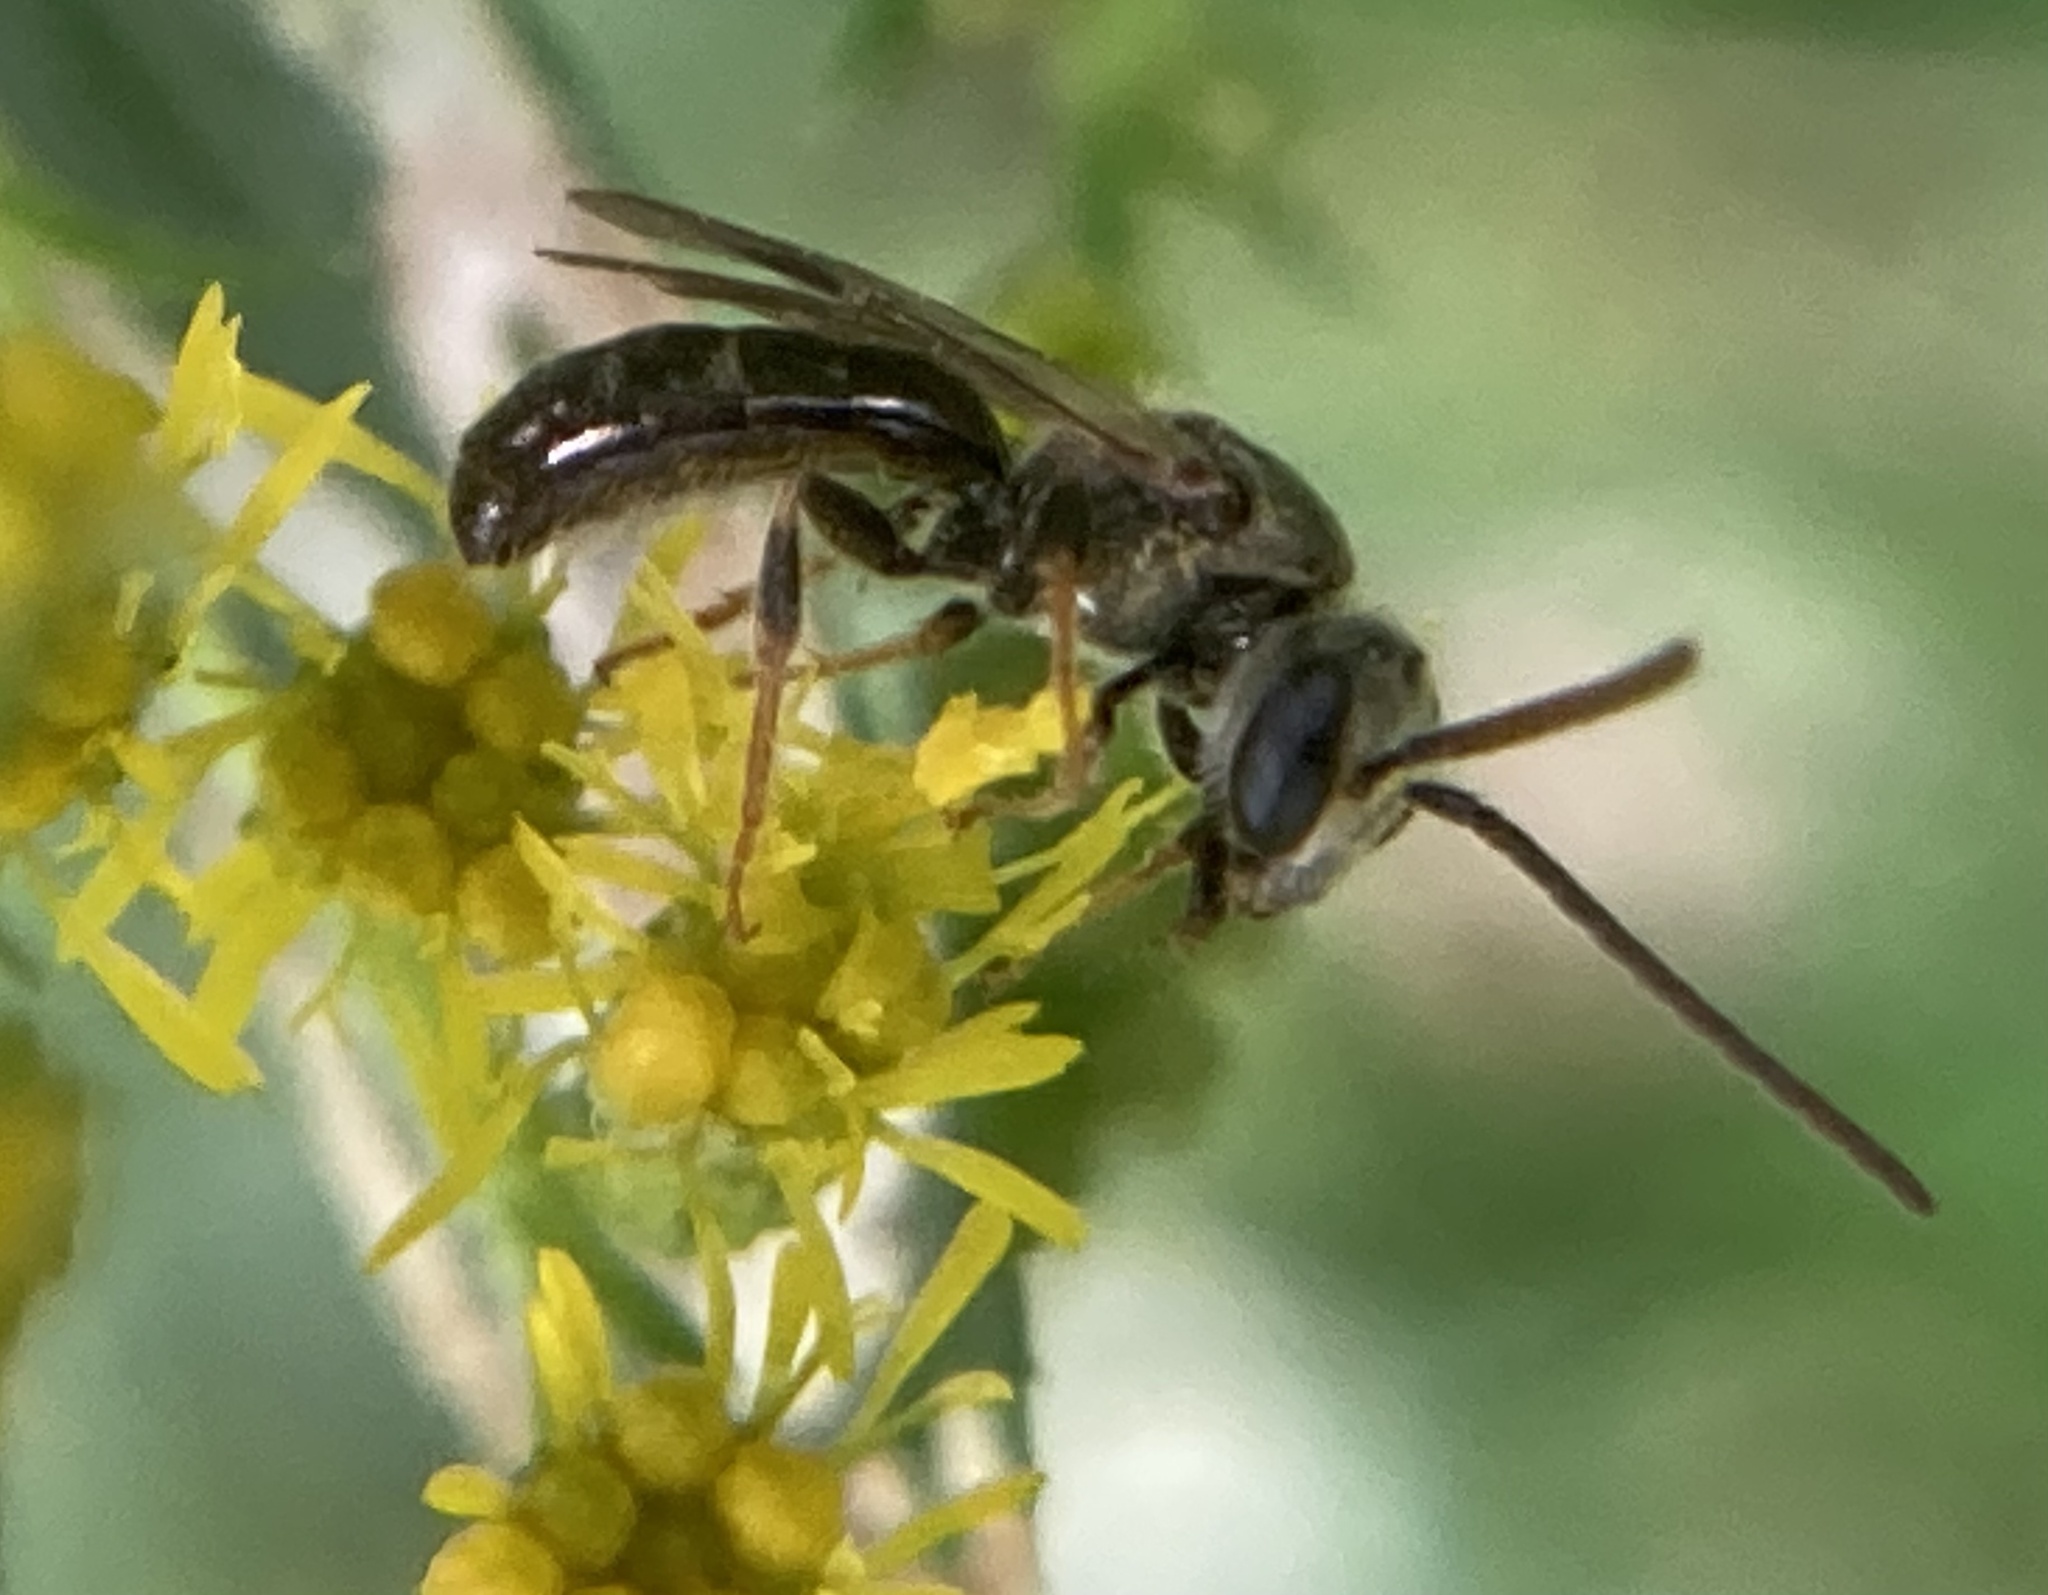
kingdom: Animalia
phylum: Arthropoda
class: Insecta
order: Hymenoptera
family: Halictidae
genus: Dialictus
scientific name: Dialictus
